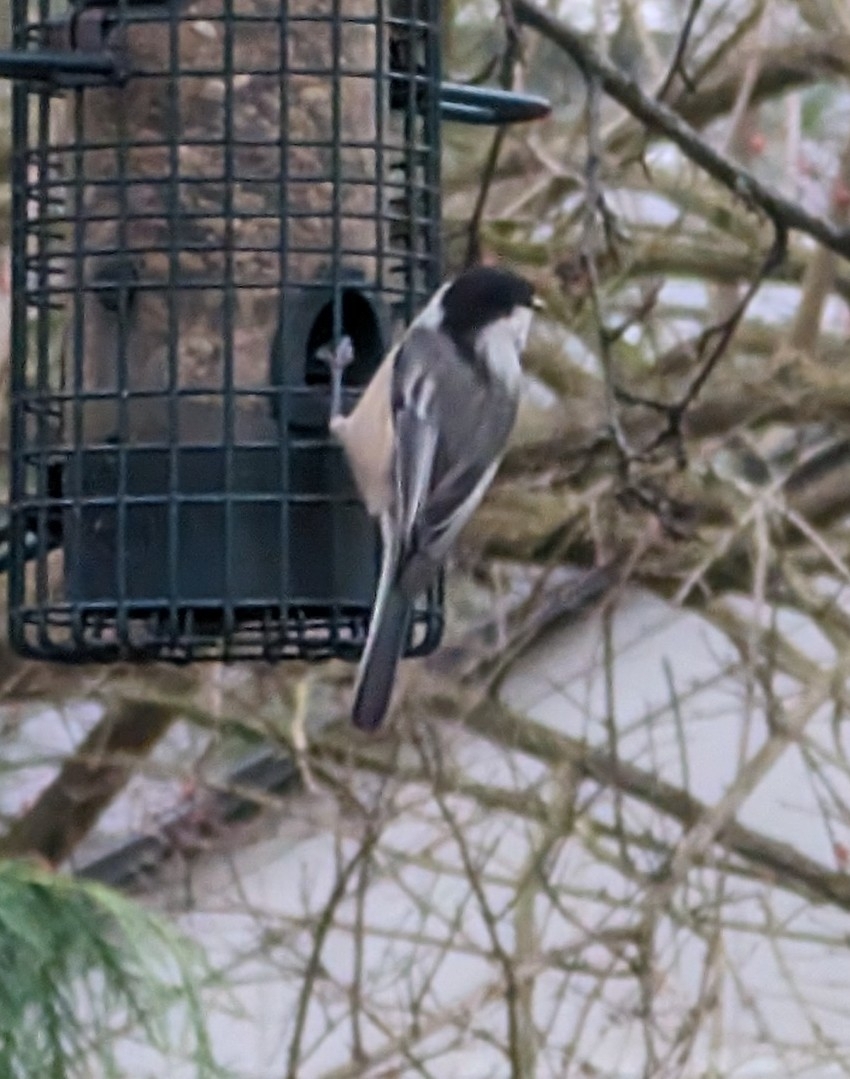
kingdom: Animalia
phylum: Chordata
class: Aves
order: Passeriformes
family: Paridae
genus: Poecile
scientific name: Poecile atricapillus
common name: Black-capped chickadee
